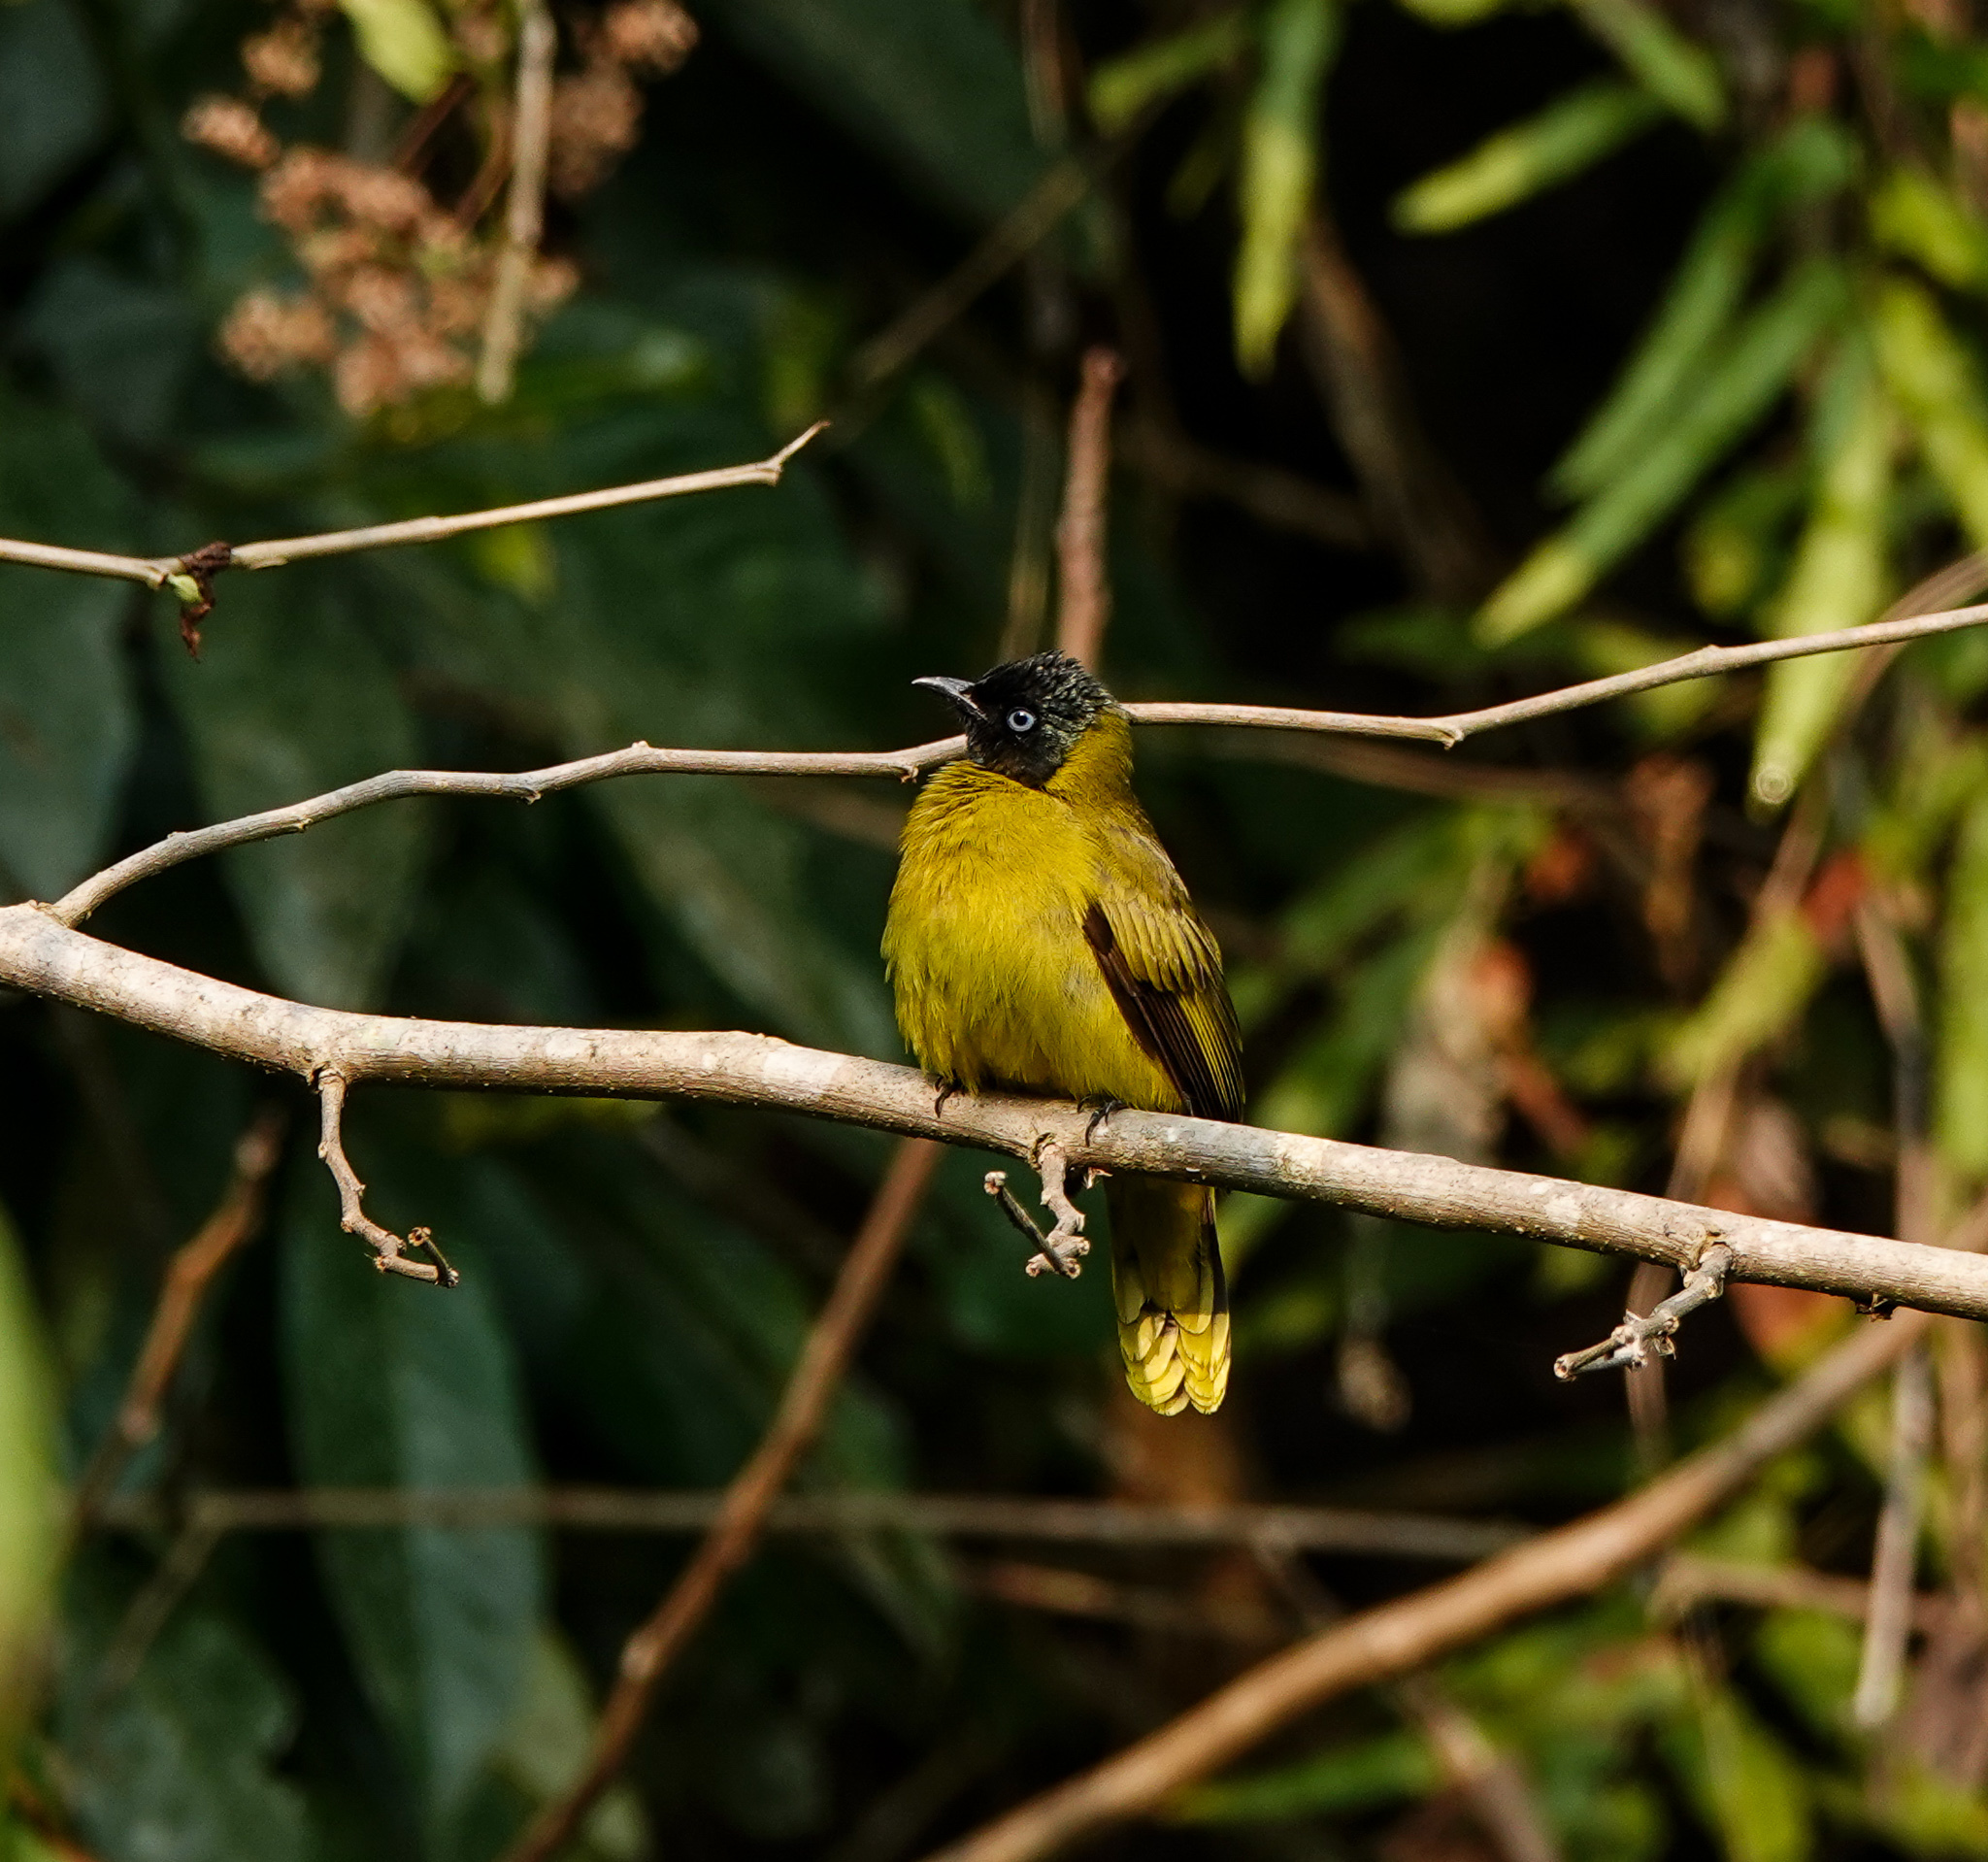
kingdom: Animalia
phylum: Chordata
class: Aves
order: Passeriformes
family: Pycnonotidae
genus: Microtarsus
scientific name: Microtarsus
